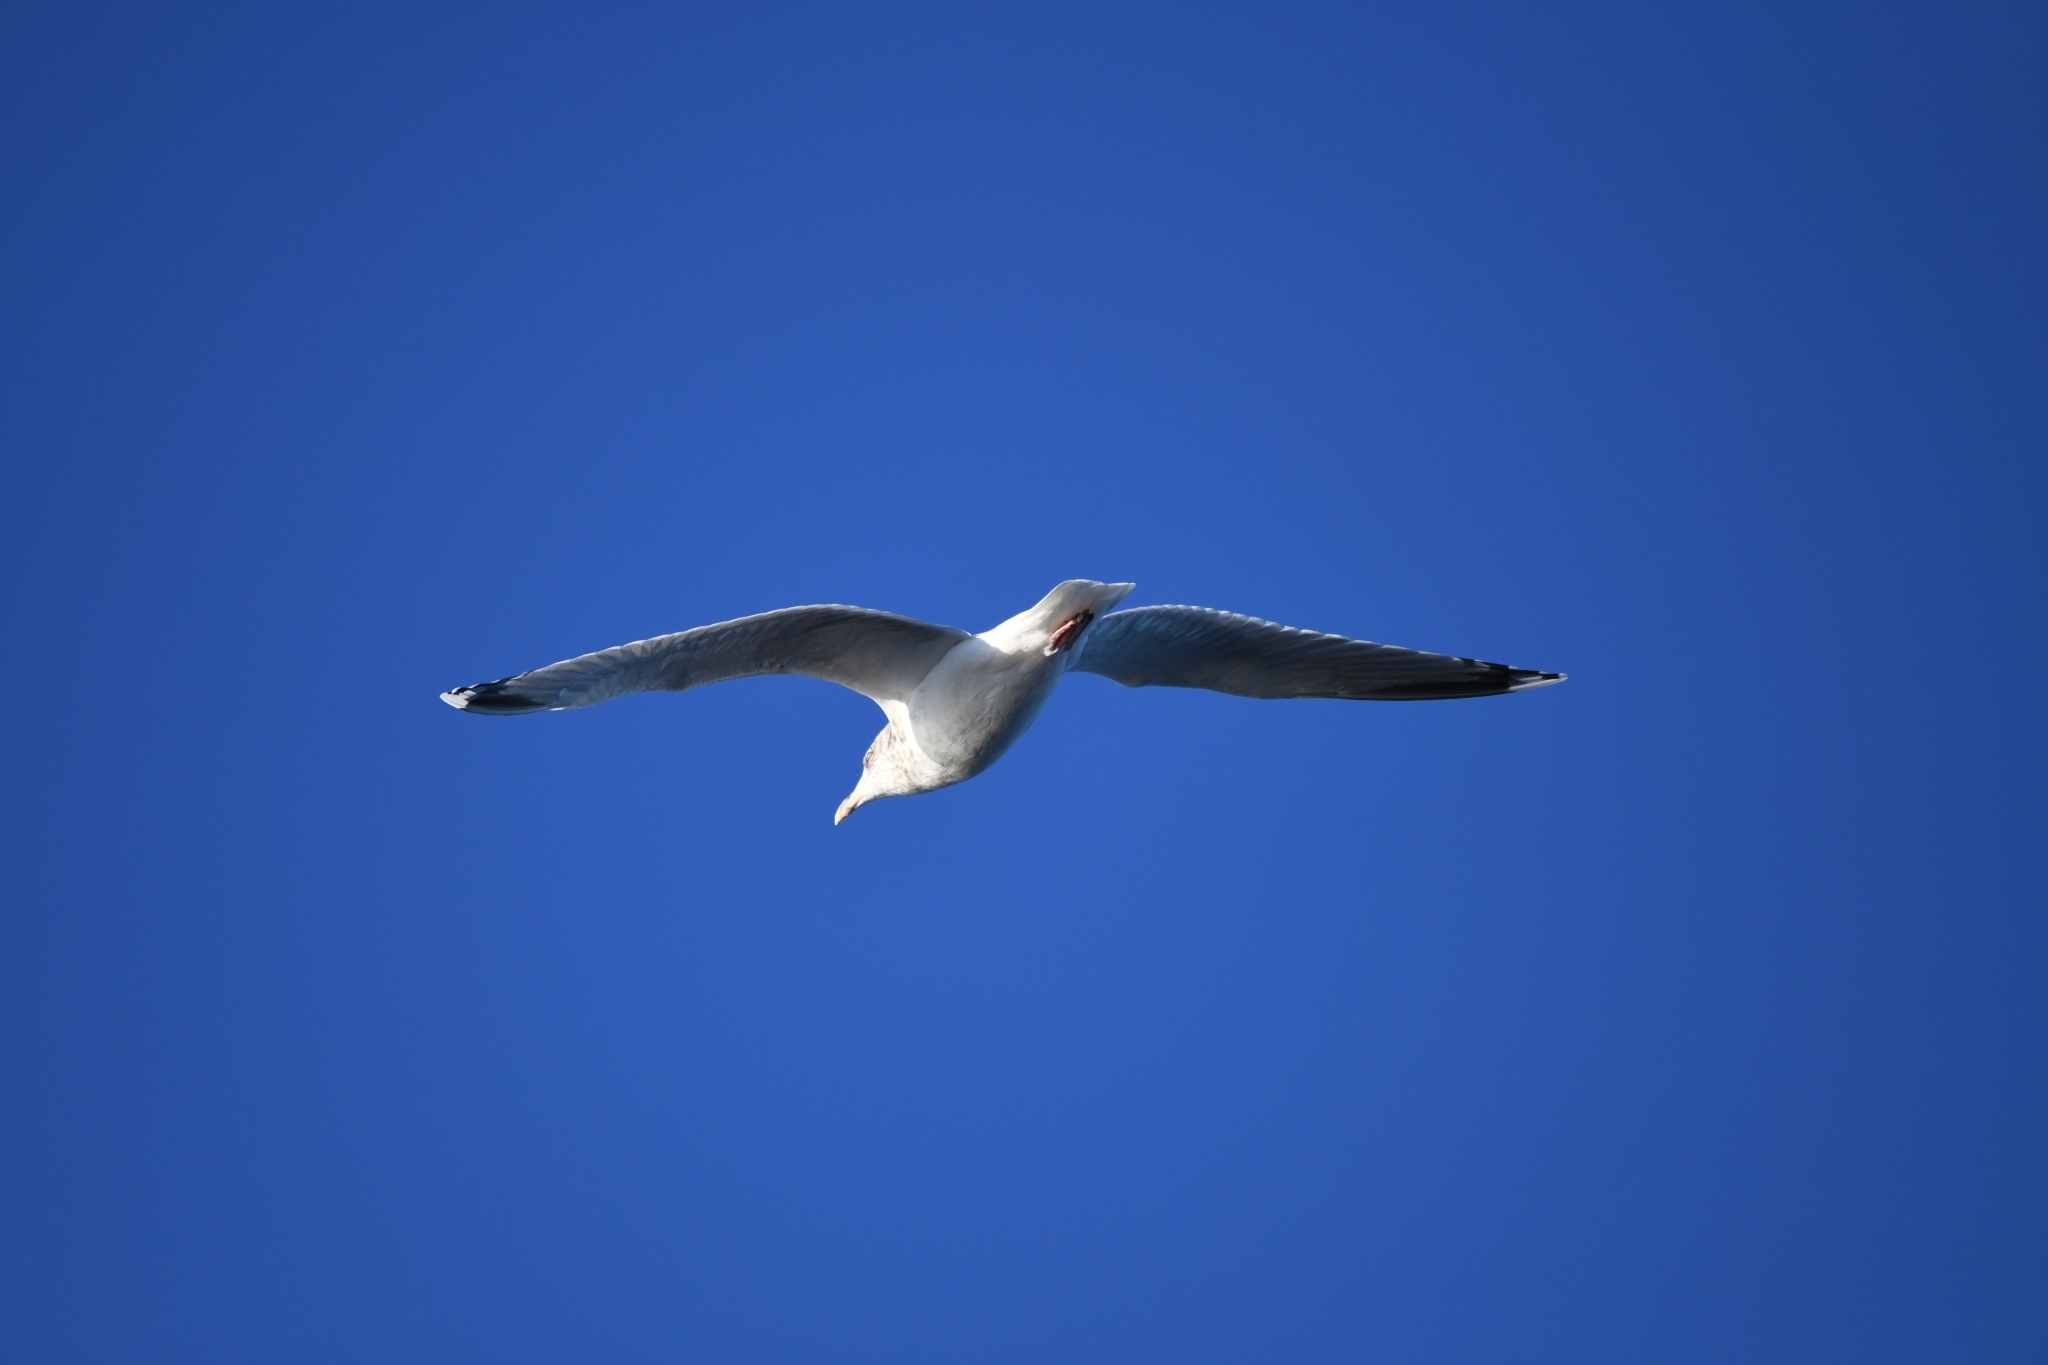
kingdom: Animalia
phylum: Chordata
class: Aves
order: Charadriiformes
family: Laridae
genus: Larus
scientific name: Larus argentatus
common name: Herring gull
